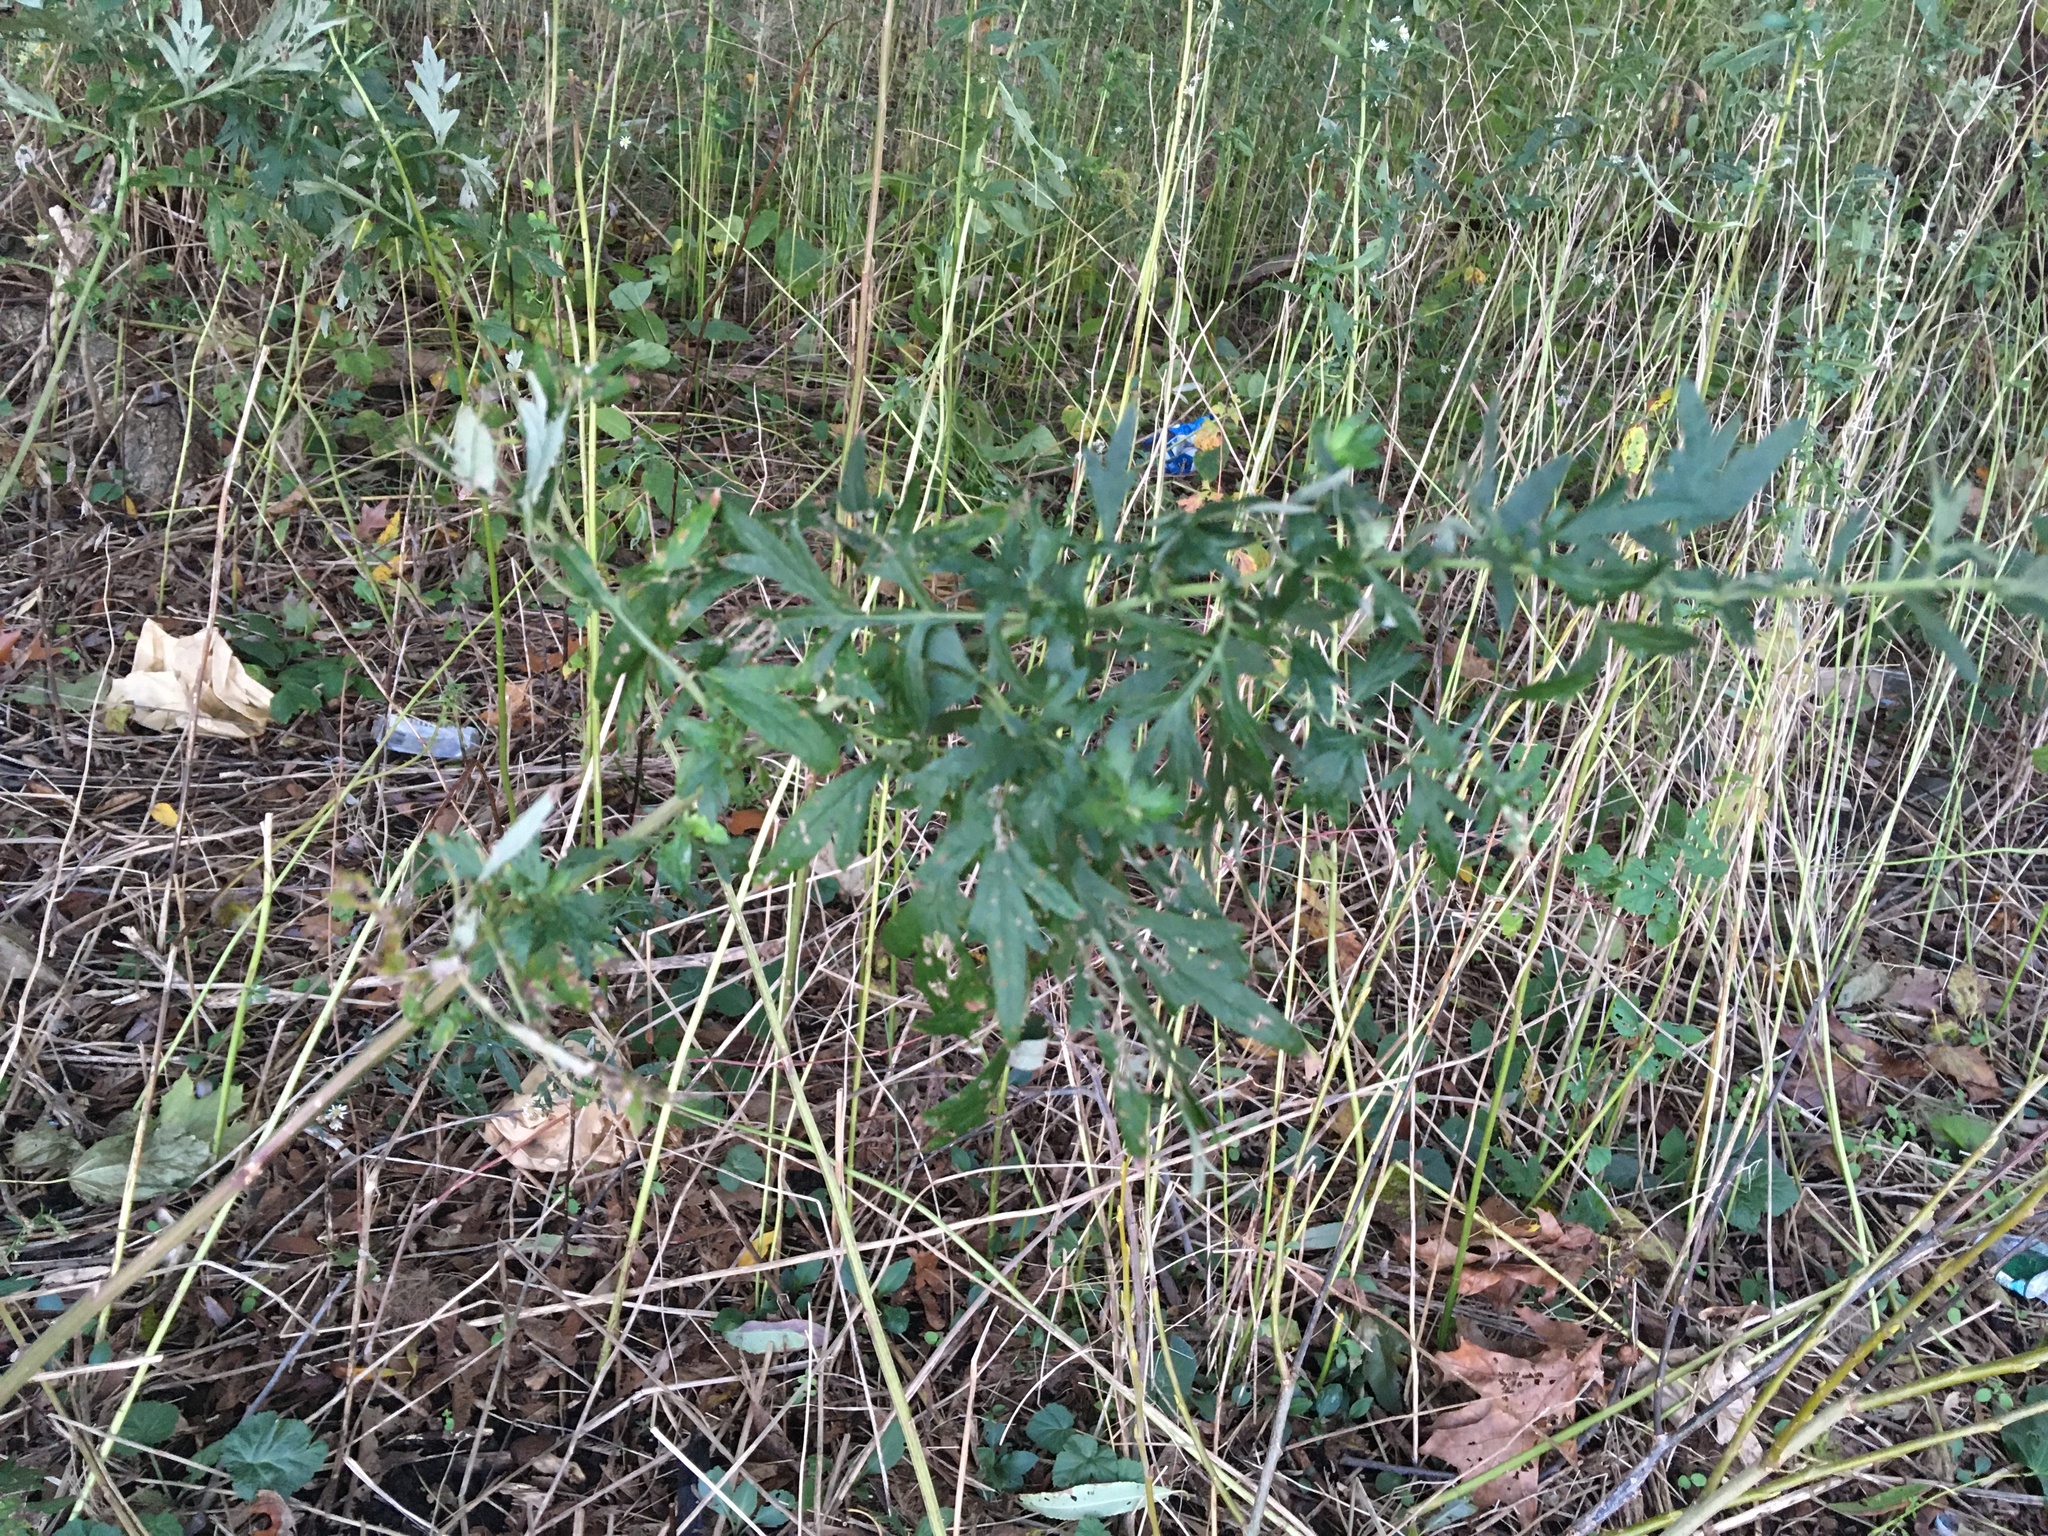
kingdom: Plantae
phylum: Tracheophyta
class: Magnoliopsida
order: Asterales
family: Asteraceae
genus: Artemisia
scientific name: Artemisia vulgaris
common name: Mugwort
